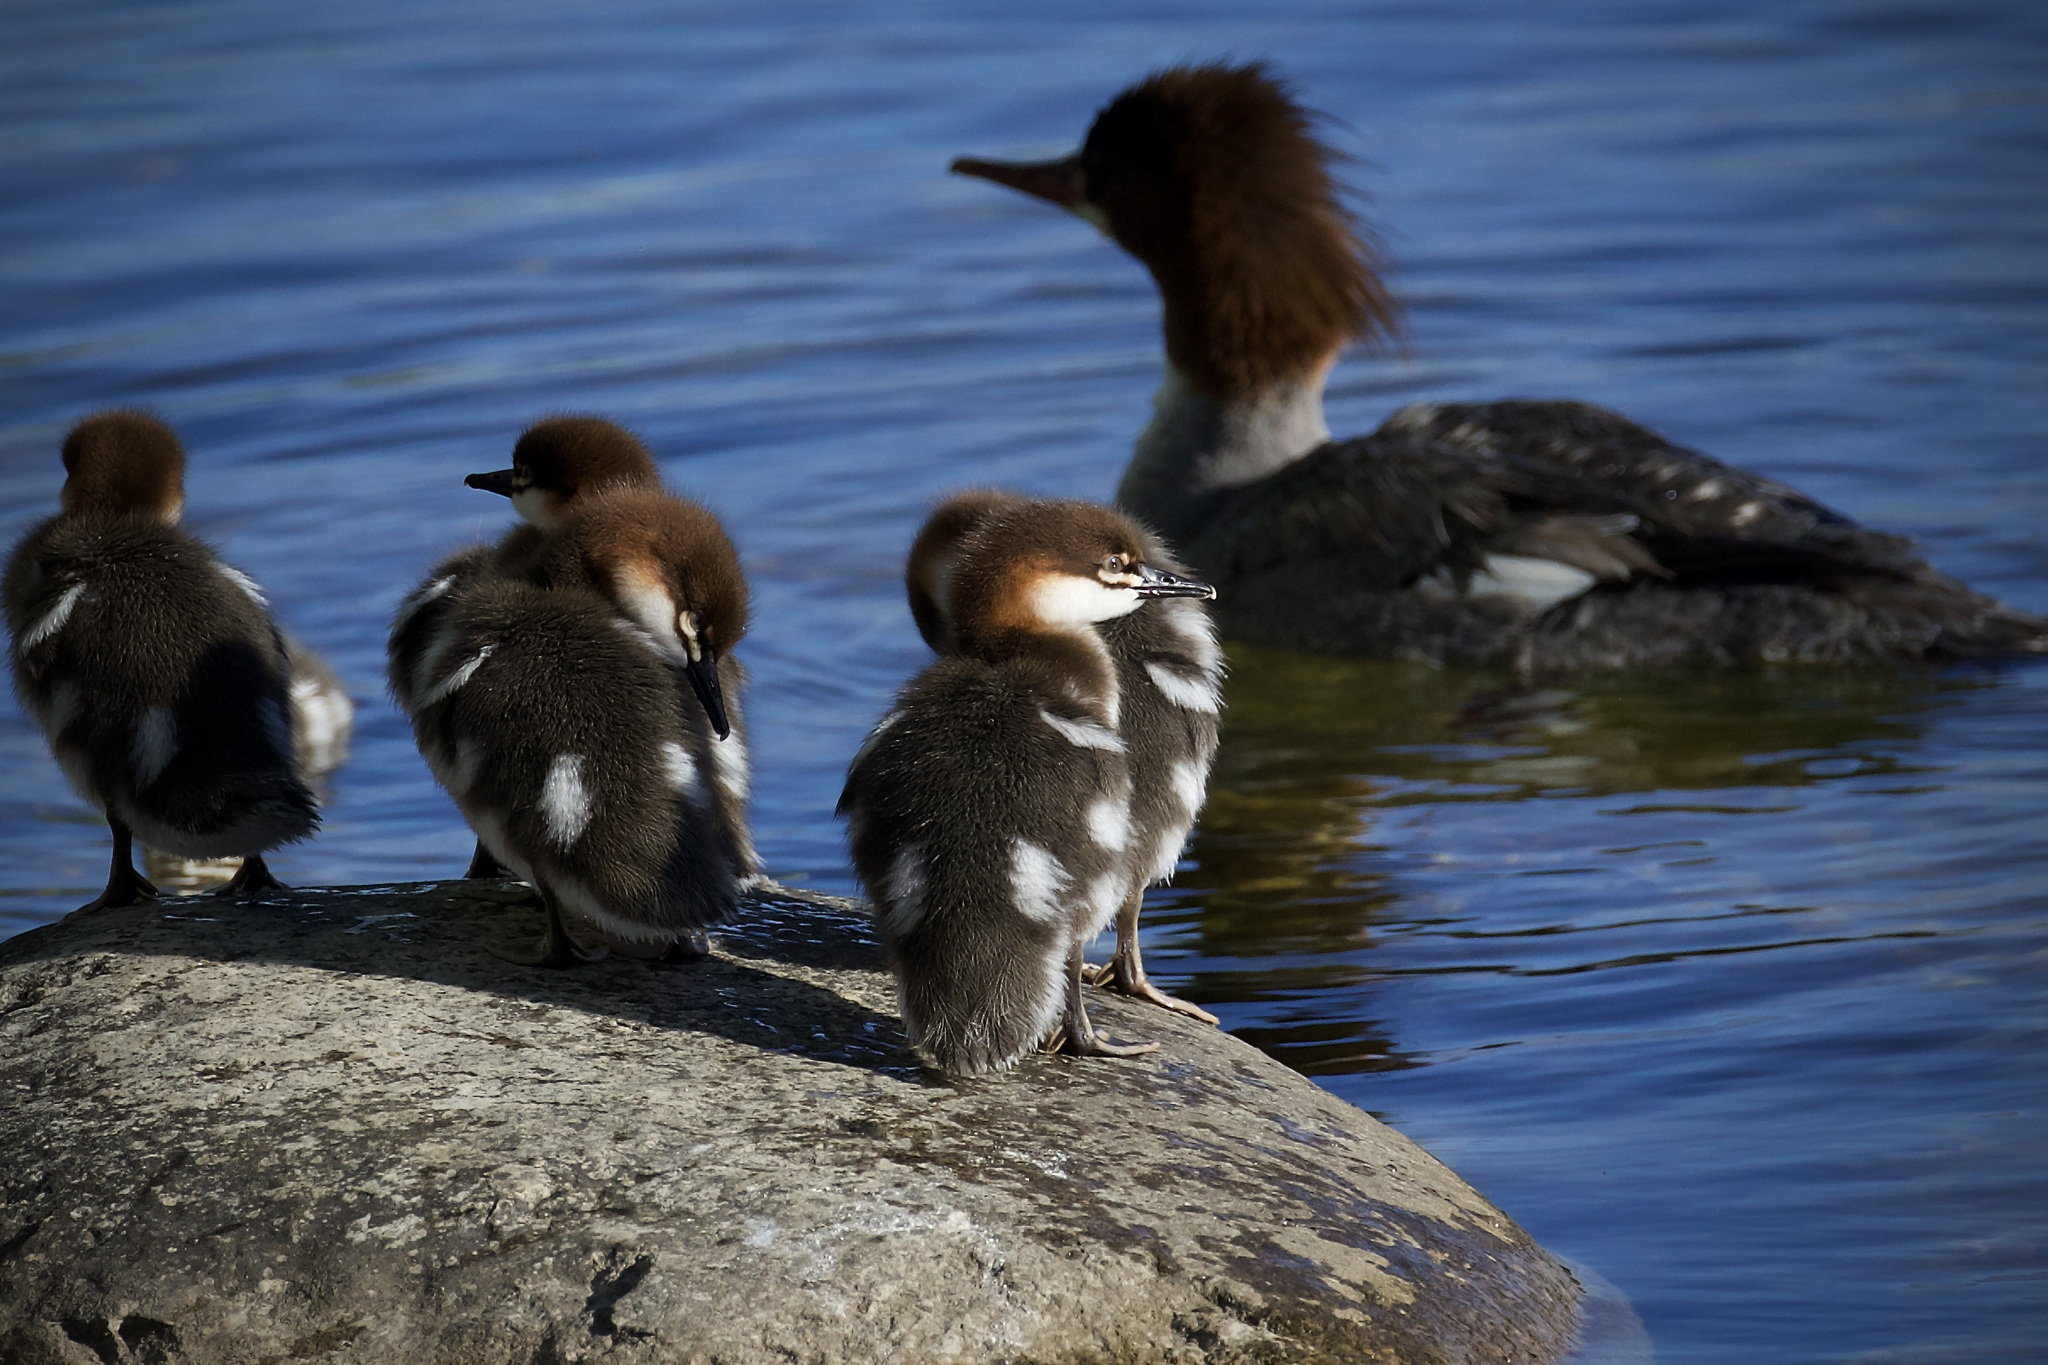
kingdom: Animalia
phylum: Chordata
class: Aves
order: Anseriformes
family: Anatidae
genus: Mergus
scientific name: Mergus merganser
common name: Common merganser
